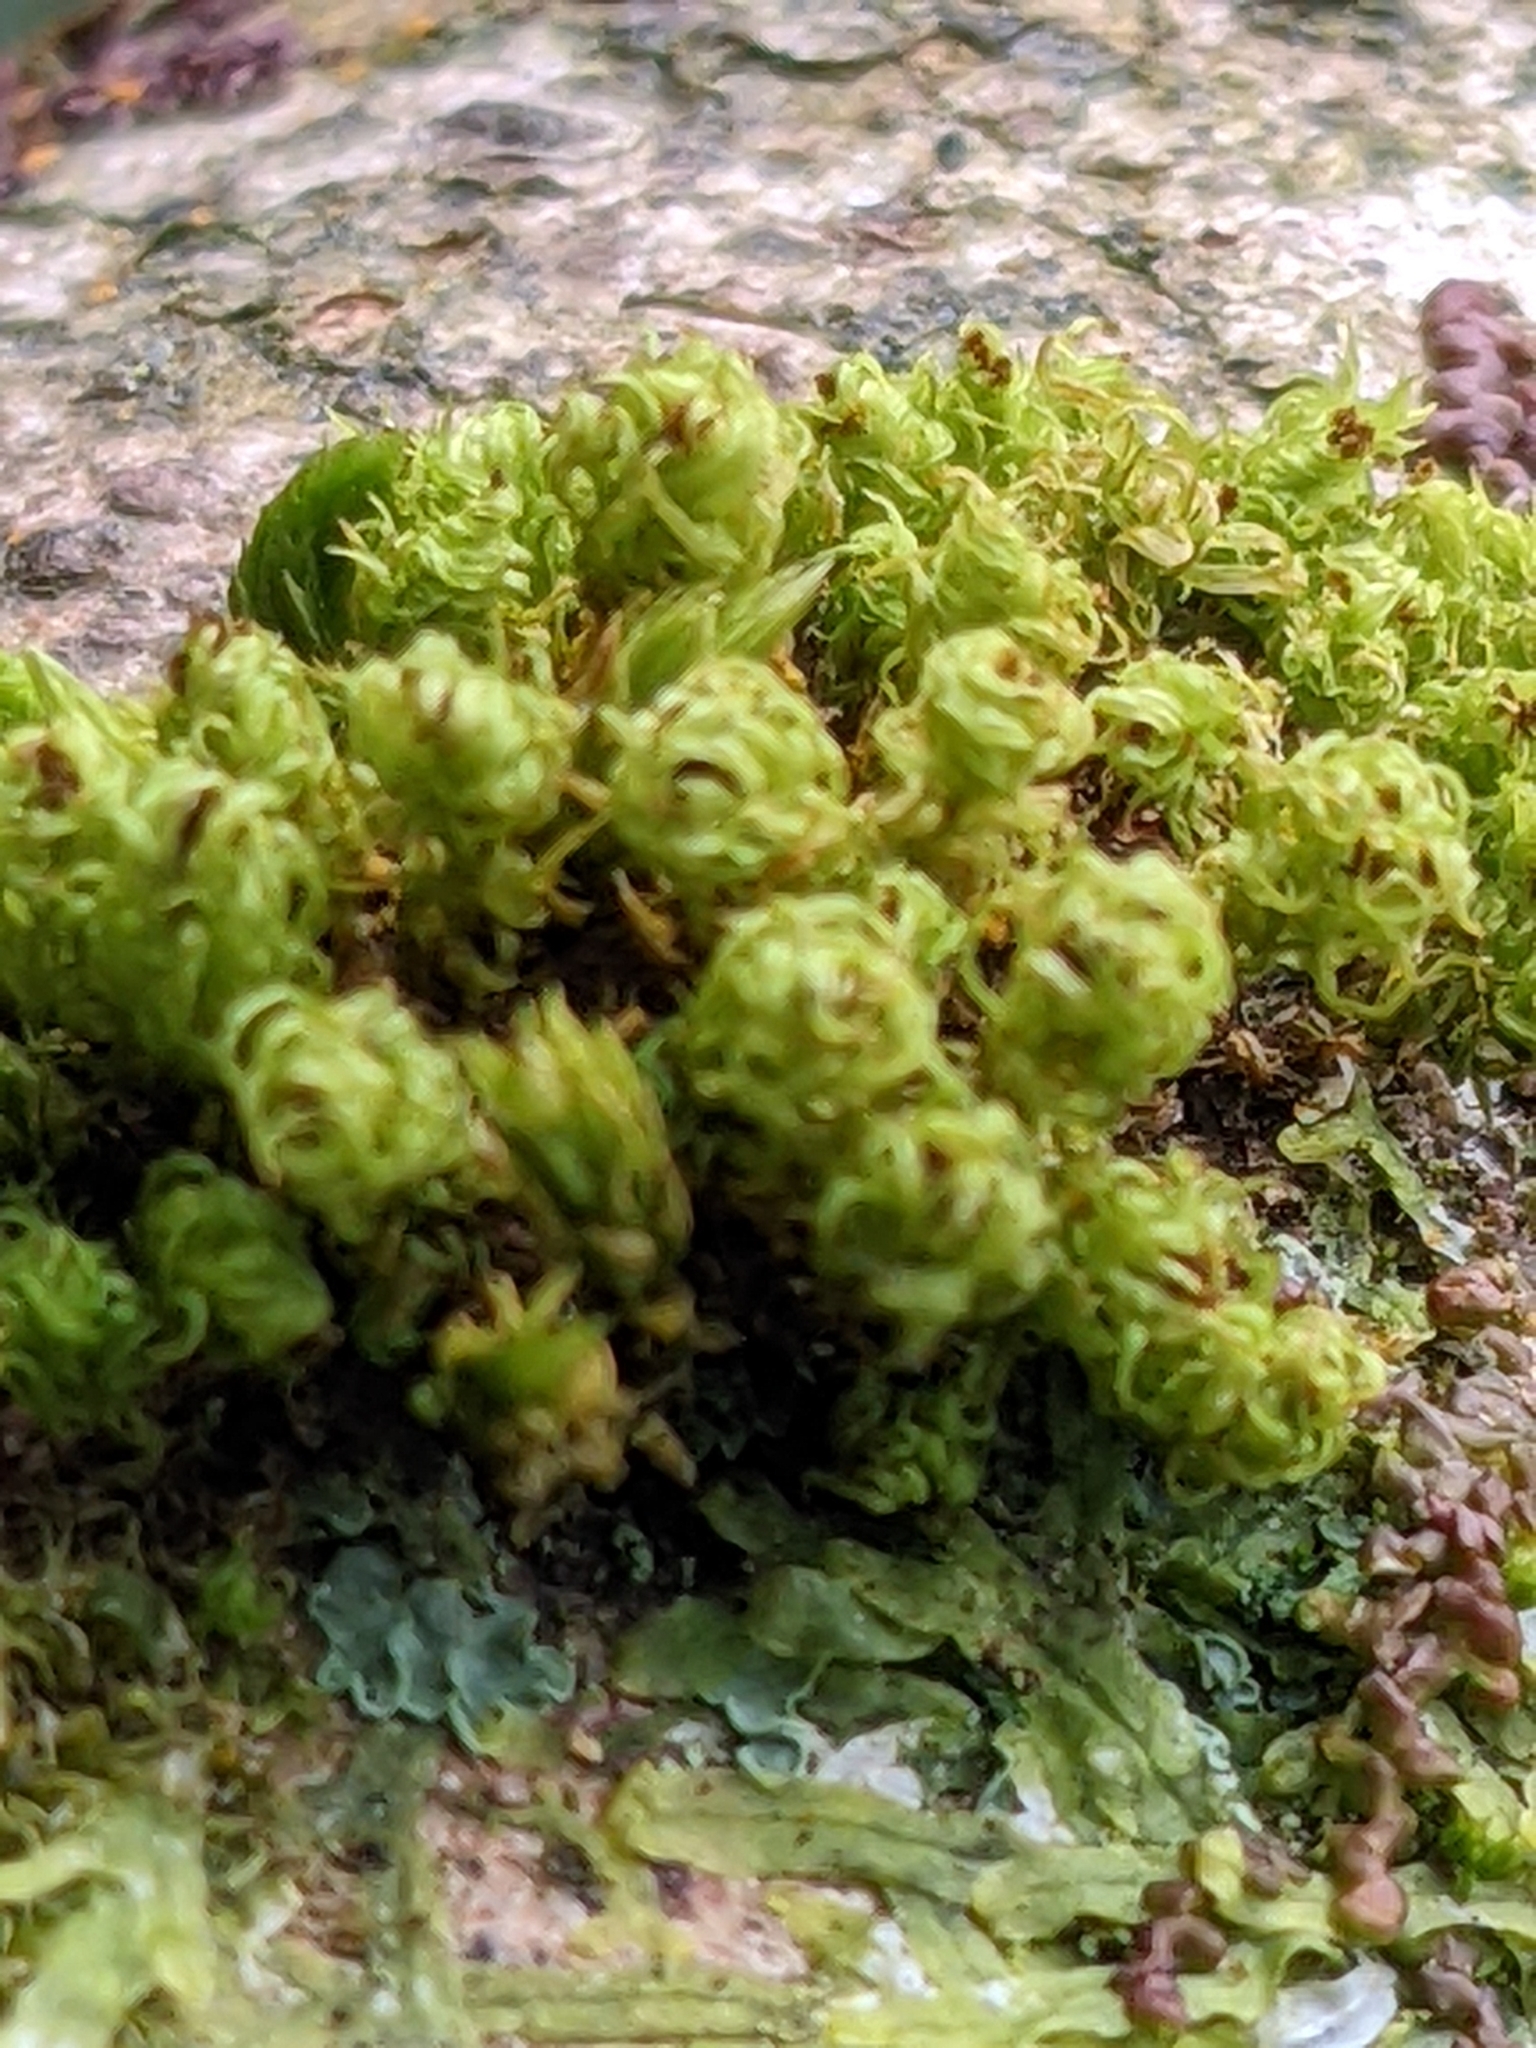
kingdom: Plantae
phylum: Bryophyta
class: Bryopsida
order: Orthotrichales
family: Orthotrichaceae
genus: Plenogemma
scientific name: Plenogemma phyllantha
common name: Frizzled pincushion
